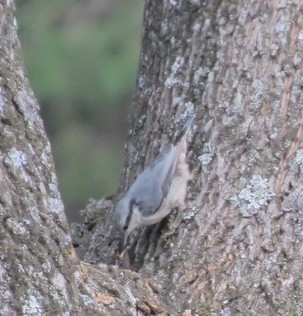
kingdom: Animalia
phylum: Chordata
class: Aves
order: Passeriformes
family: Sittidae
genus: Sitta
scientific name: Sitta europaea
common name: Eurasian nuthatch
